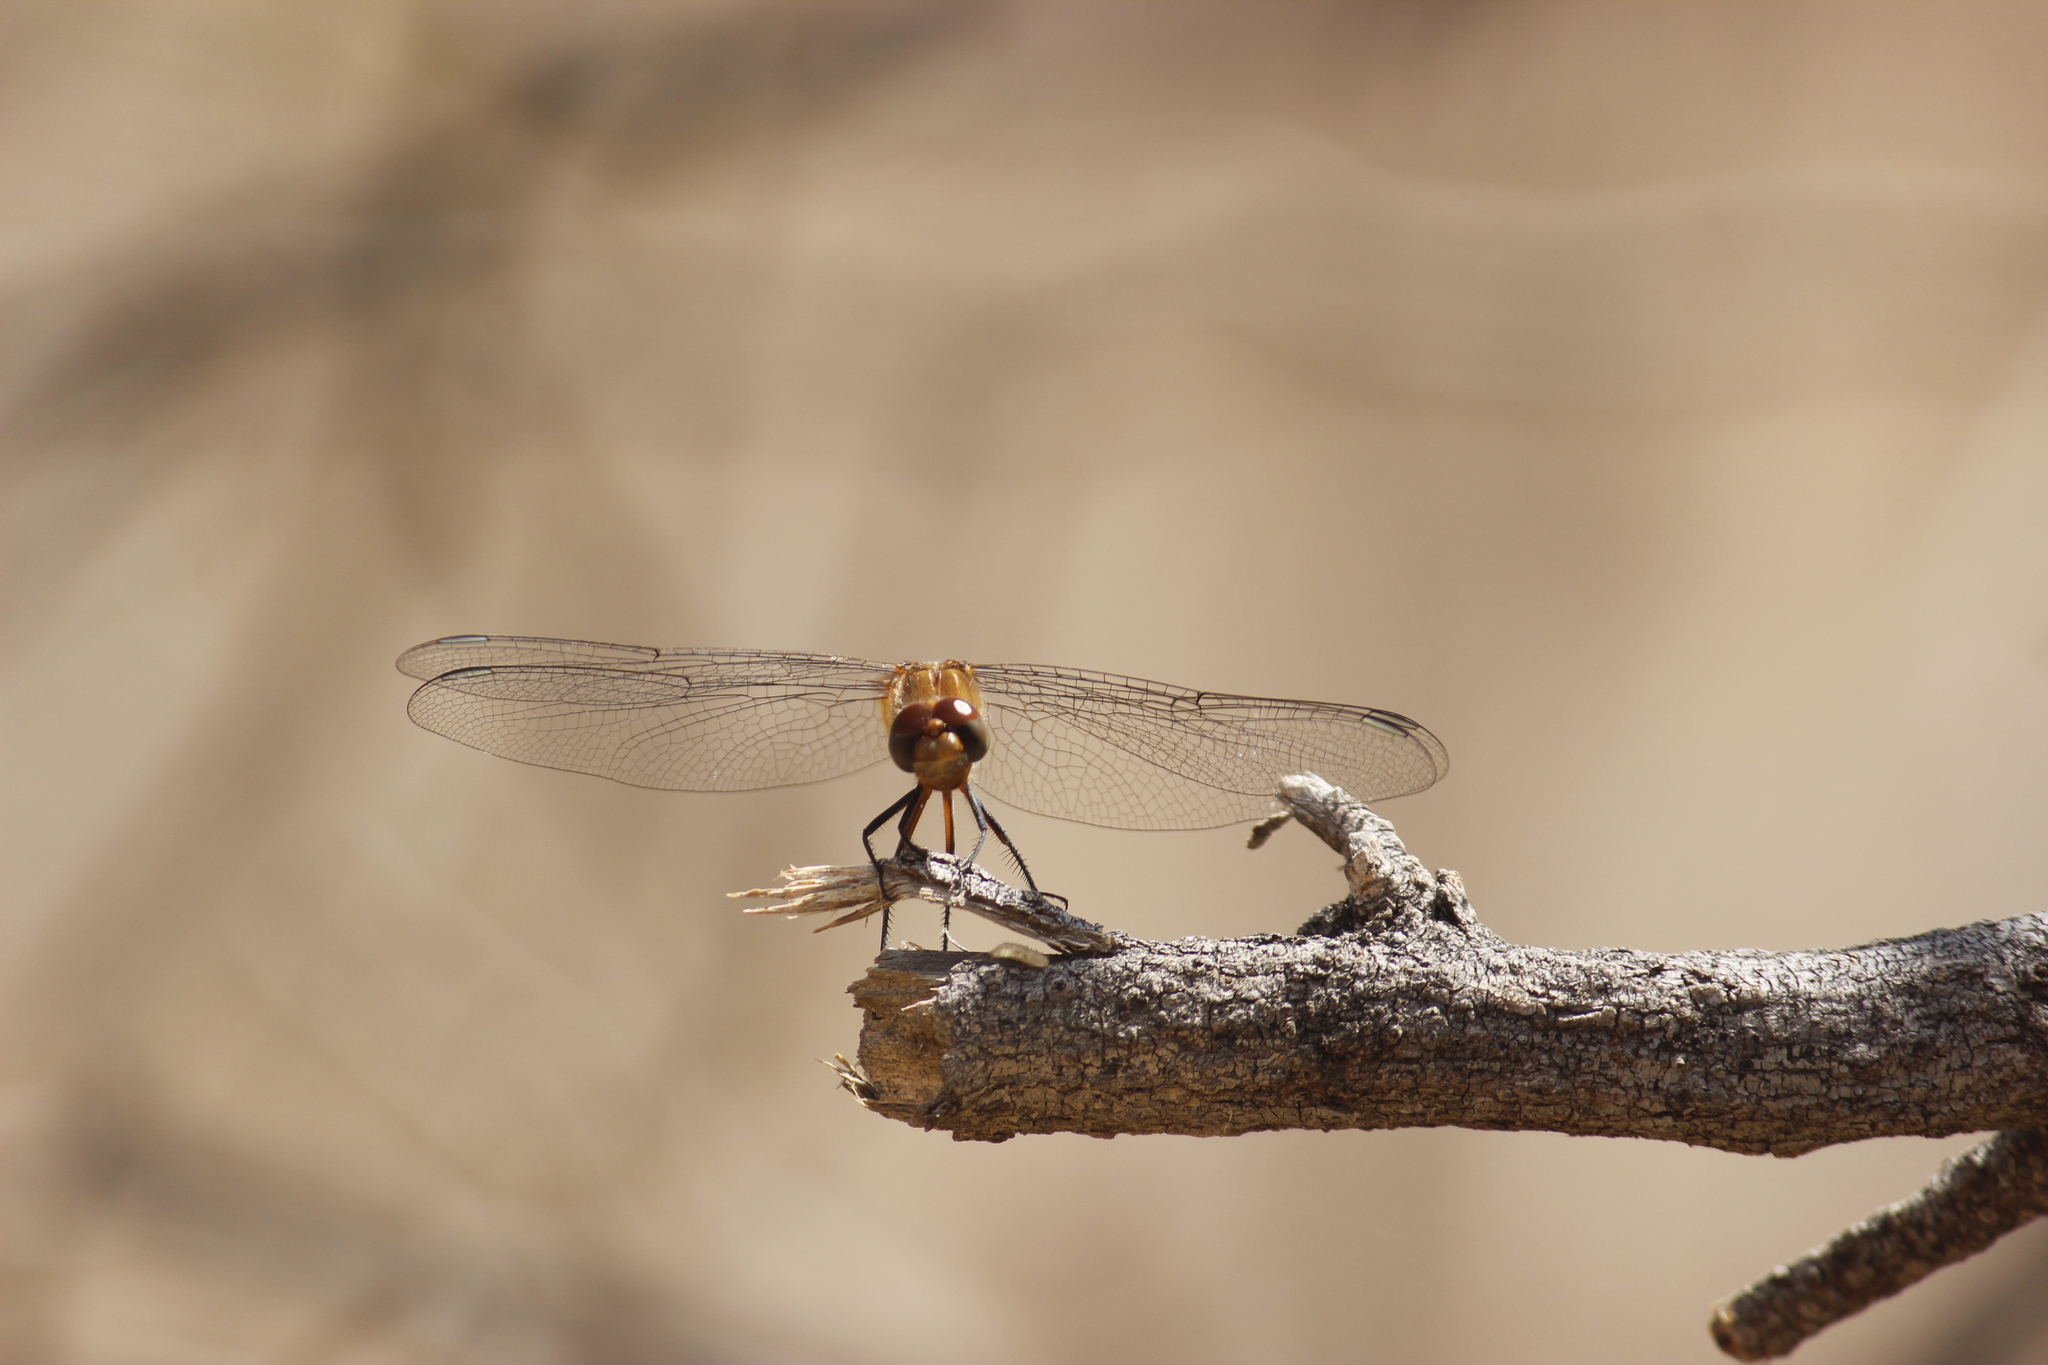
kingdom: Animalia
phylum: Arthropoda
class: Insecta
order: Odonata
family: Libellulidae
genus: Brachymesia
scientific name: Brachymesia furcata
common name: Red-taled pennant
